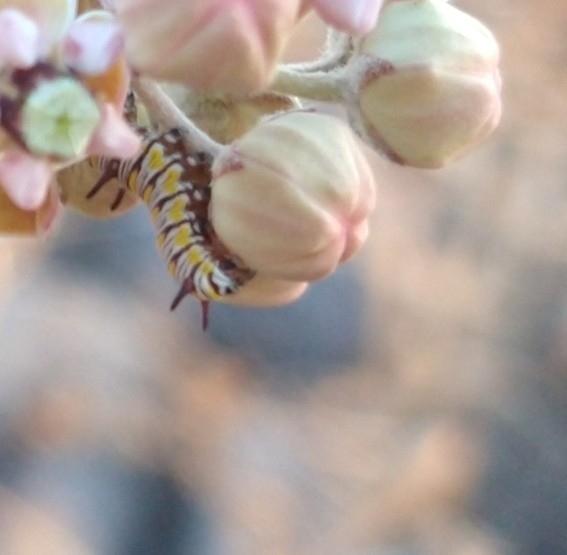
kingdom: Animalia
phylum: Arthropoda
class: Insecta
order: Lepidoptera
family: Nymphalidae
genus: Danaus
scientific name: Danaus gilippus
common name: Queen
